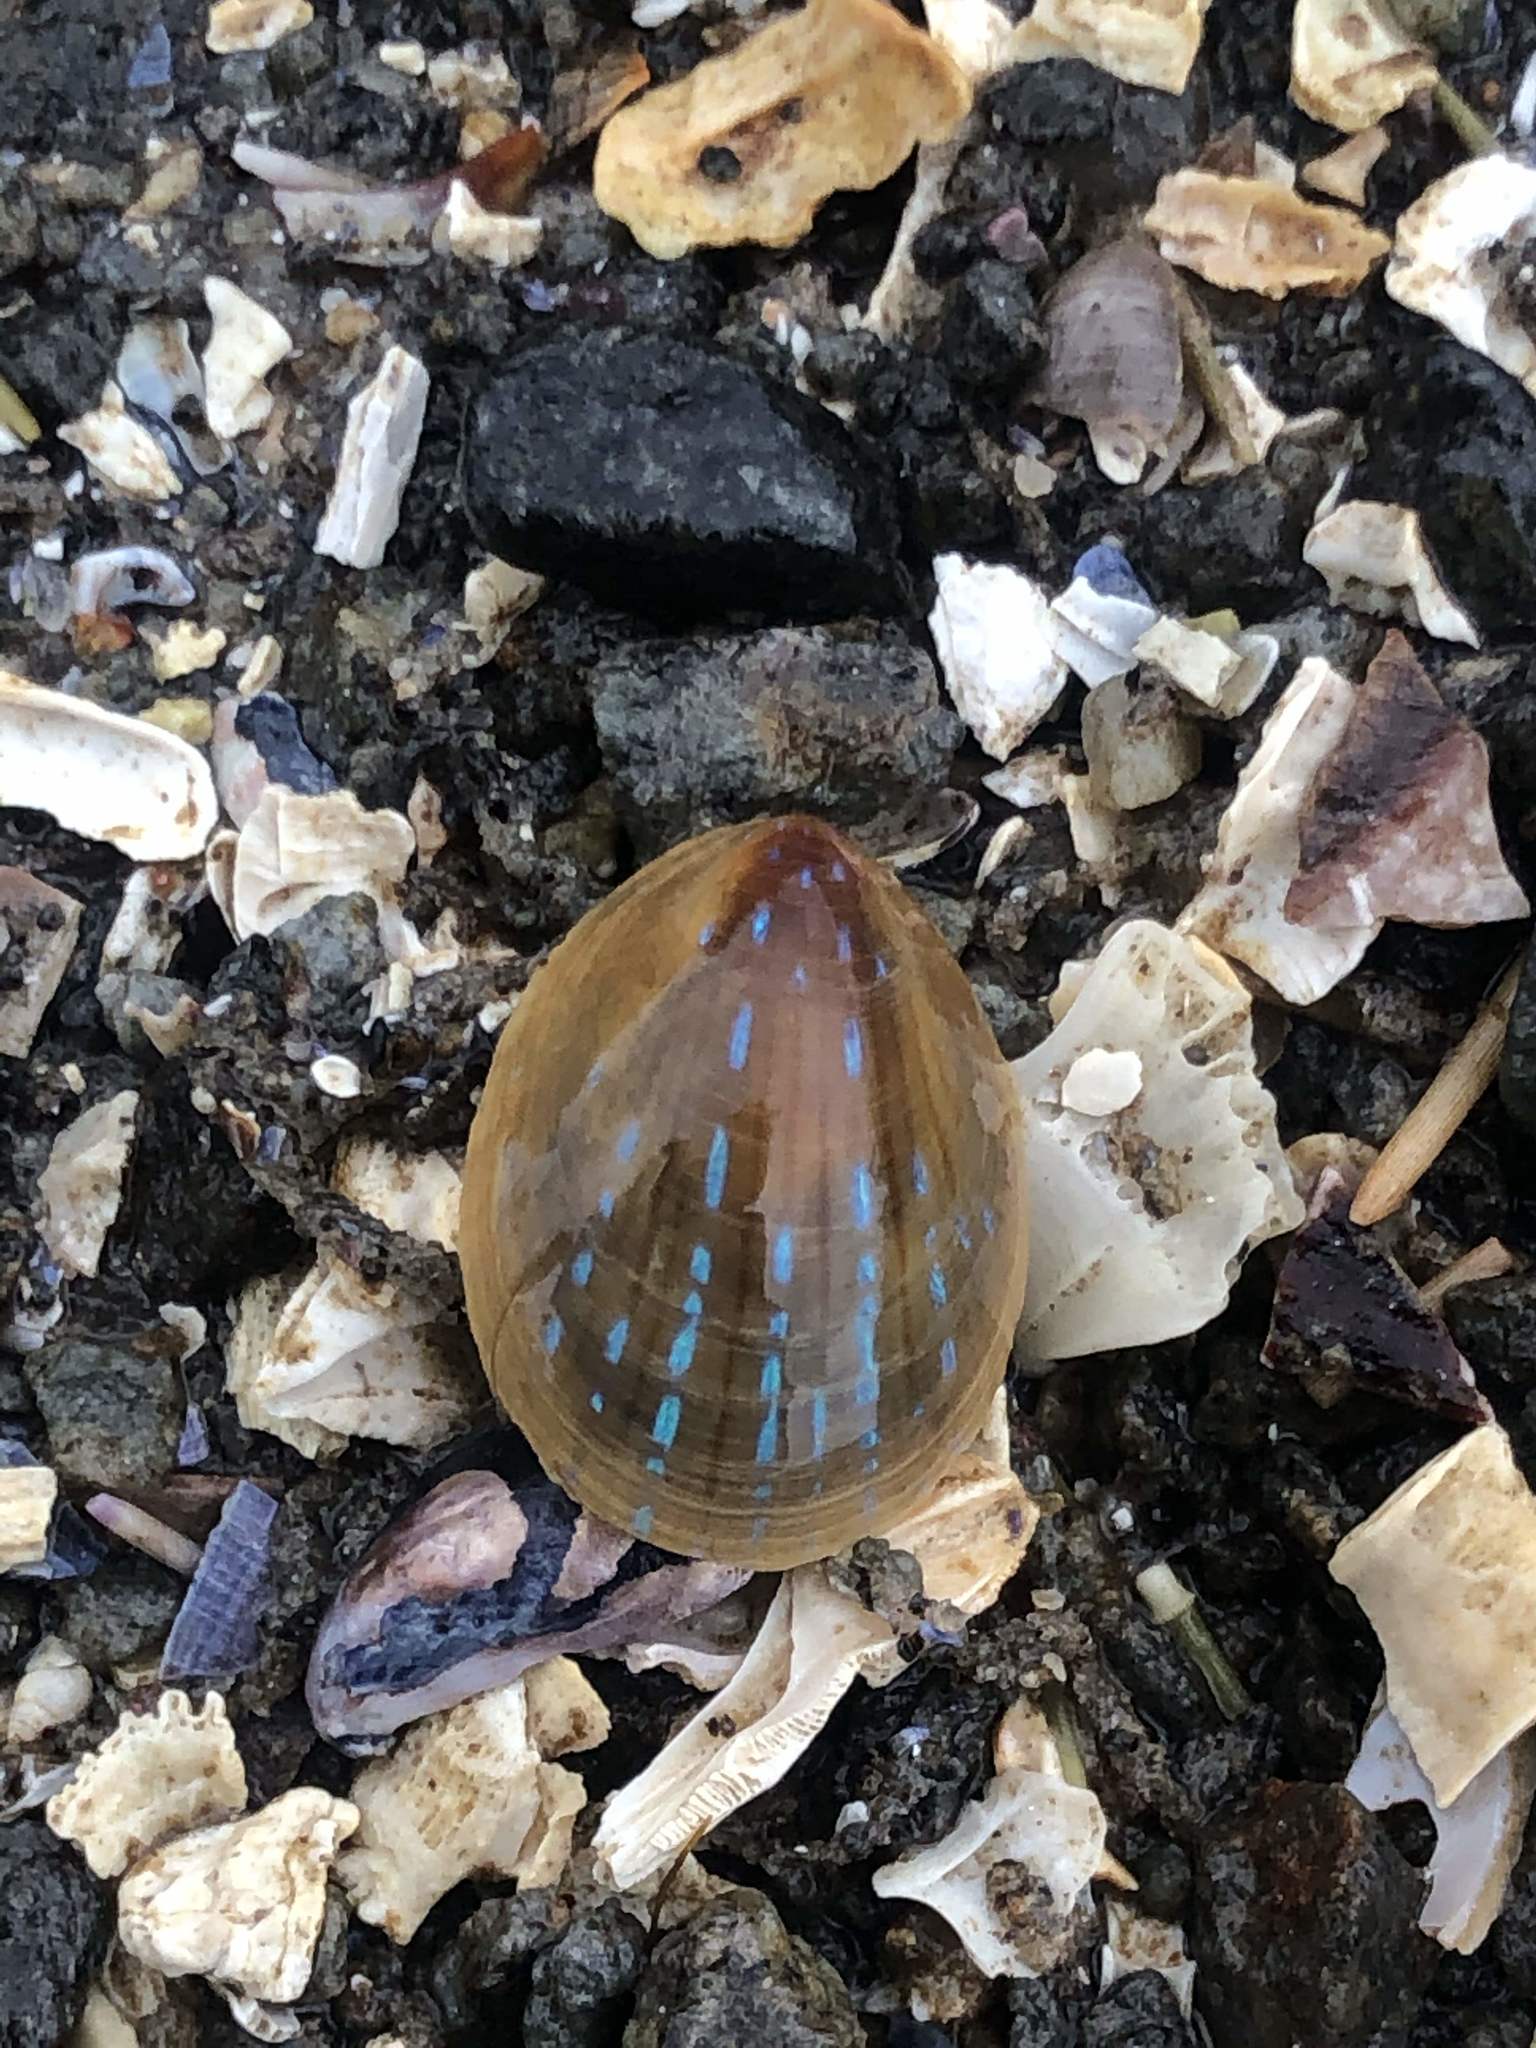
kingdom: Animalia
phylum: Mollusca
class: Gastropoda
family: Patellidae
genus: Patella
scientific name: Patella pellucida
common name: Blue-rayed limpet
